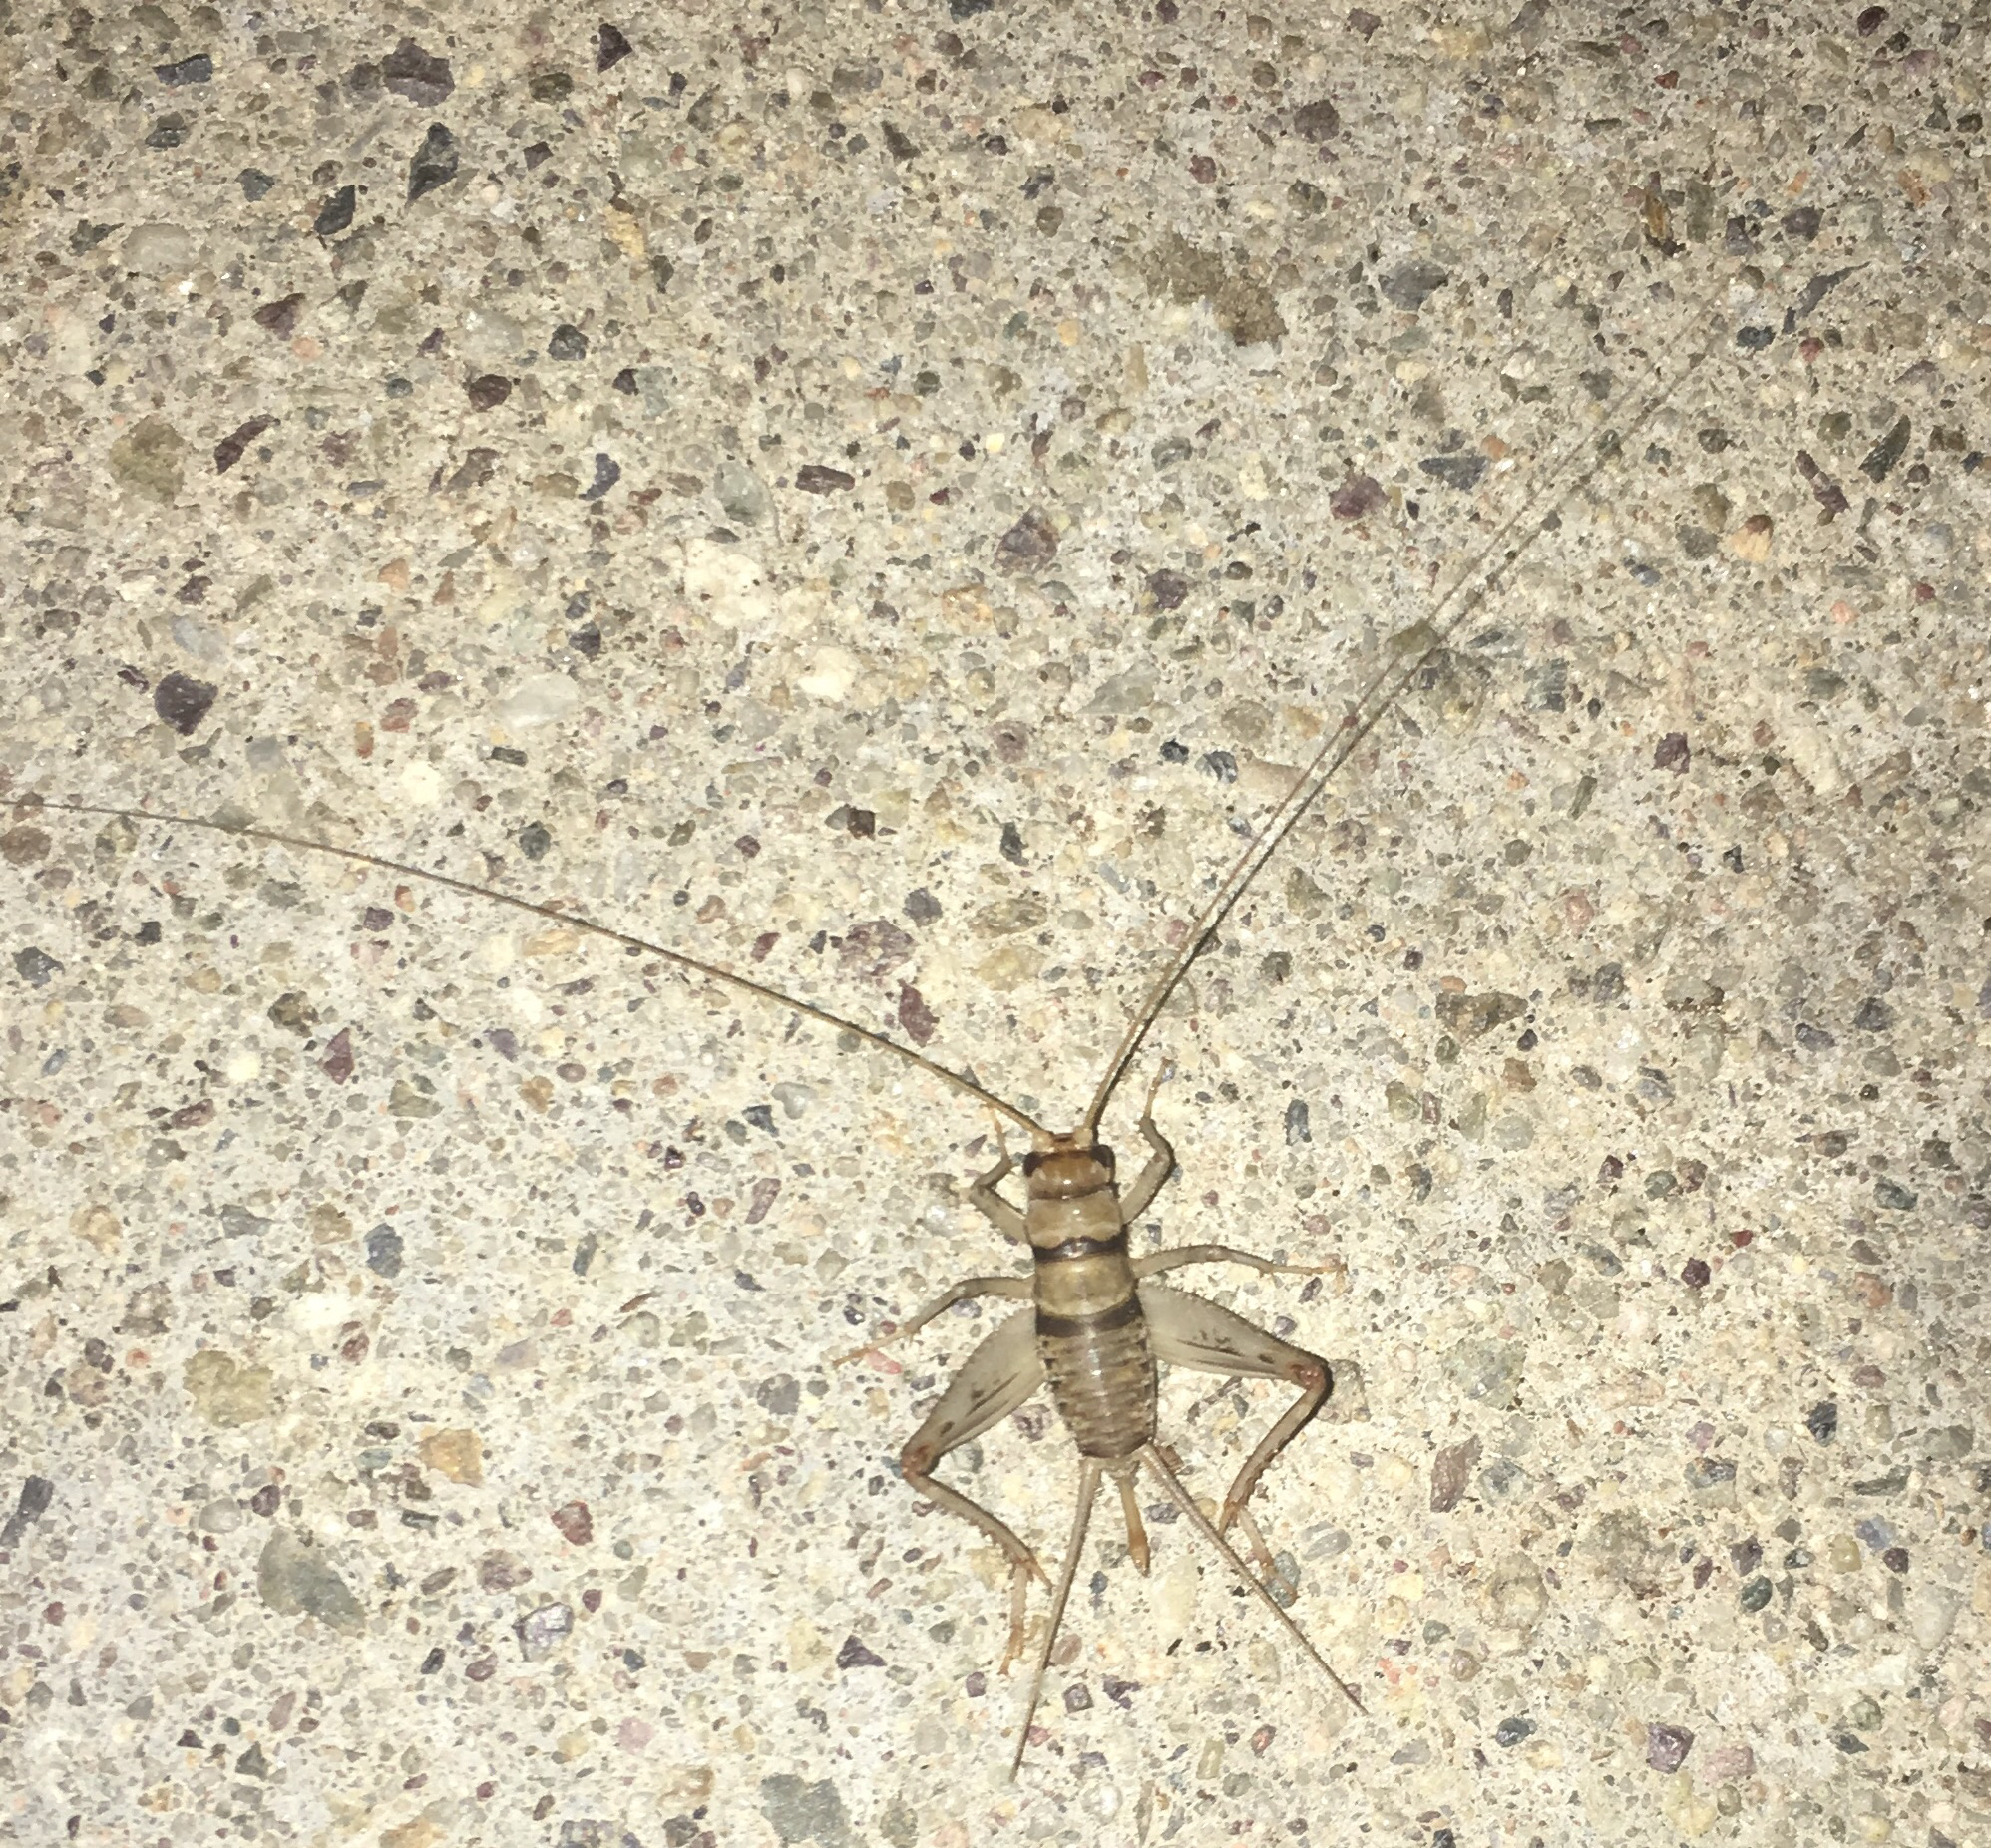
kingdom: Animalia
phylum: Arthropoda
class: Insecta
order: Orthoptera
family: Gryllidae
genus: Gryllodes
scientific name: Gryllodes sigillatus
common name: Tropical house cricket
